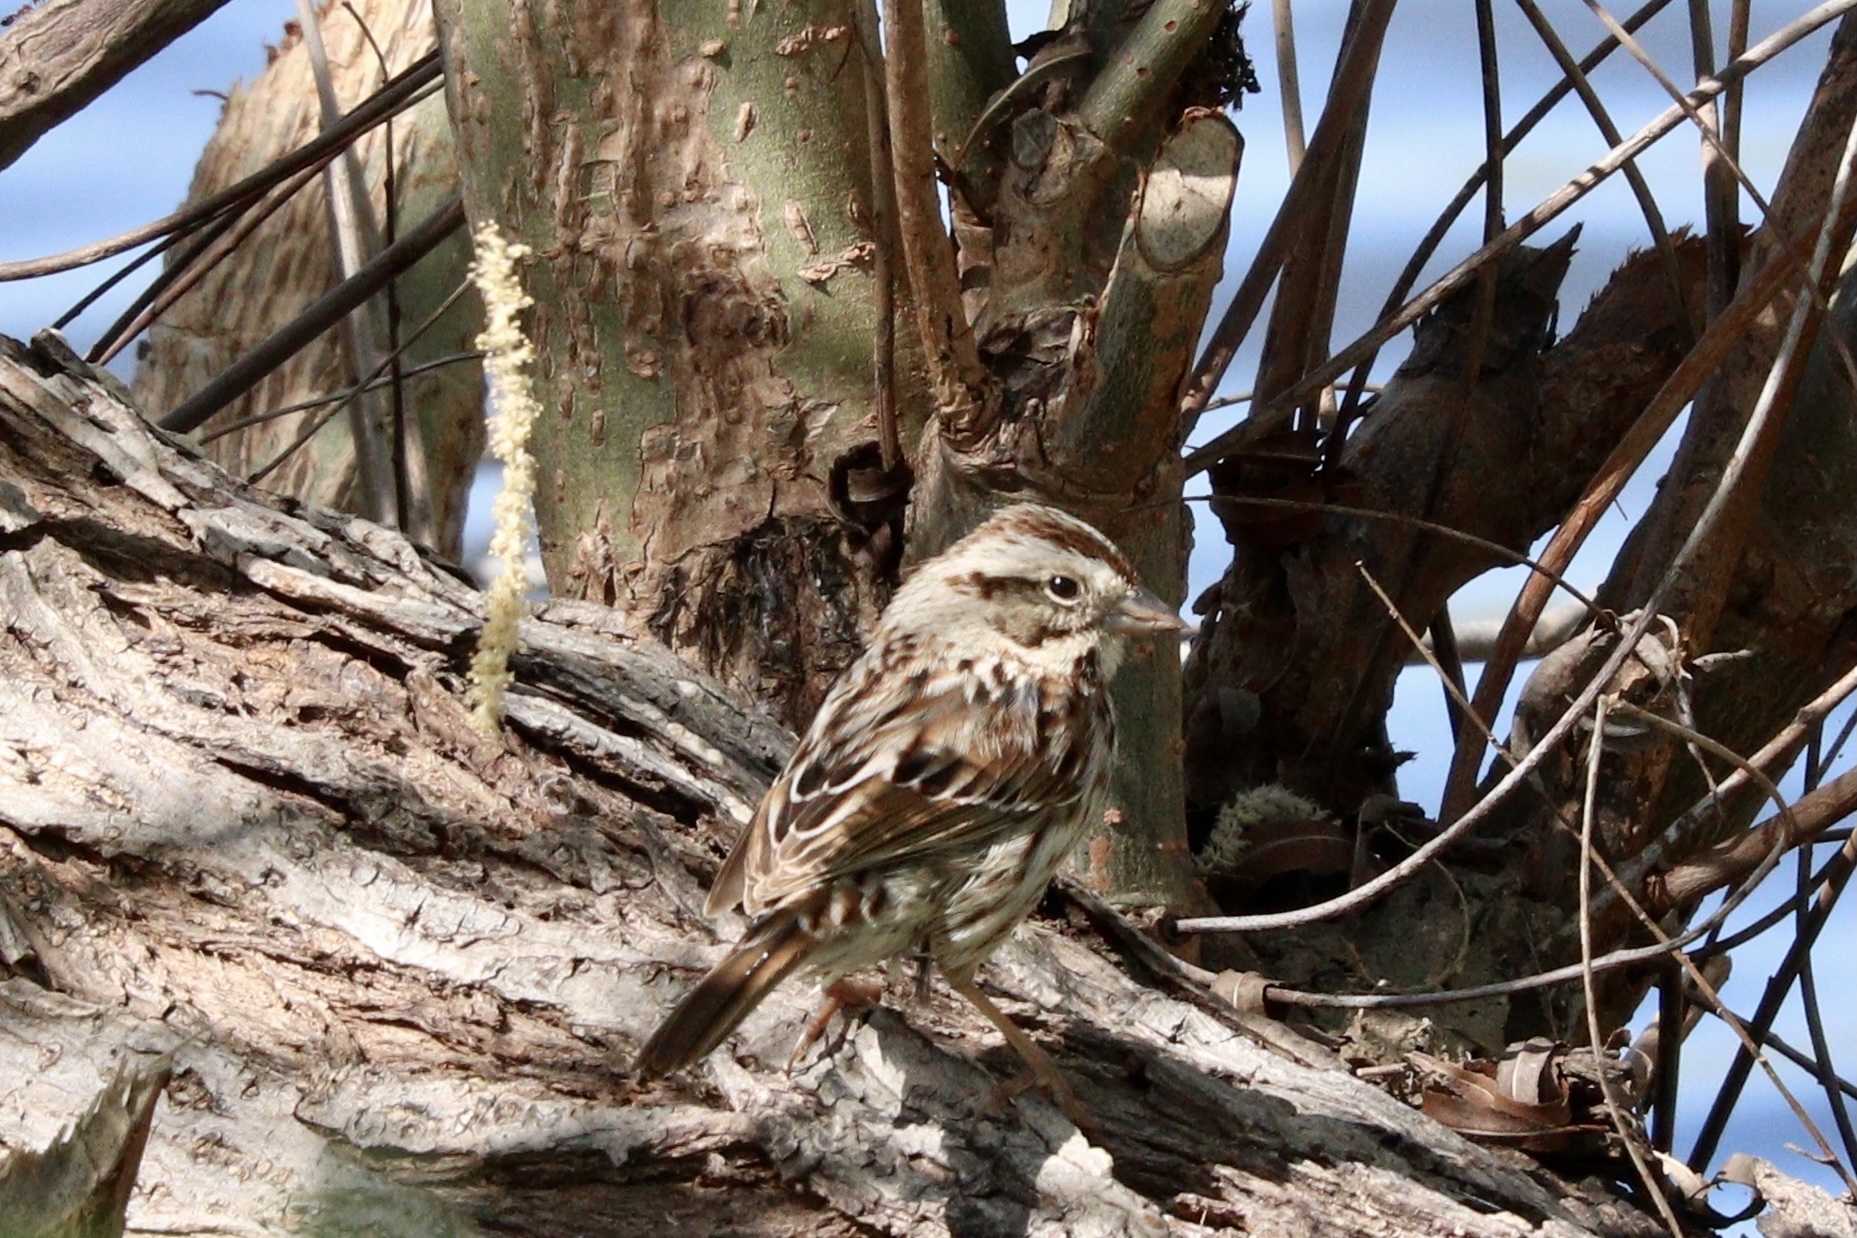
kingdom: Animalia
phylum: Chordata
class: Aves
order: Passeriformes
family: Passerellidae
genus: Melospiza
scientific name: Melospiza melodia
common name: Song sparrow
